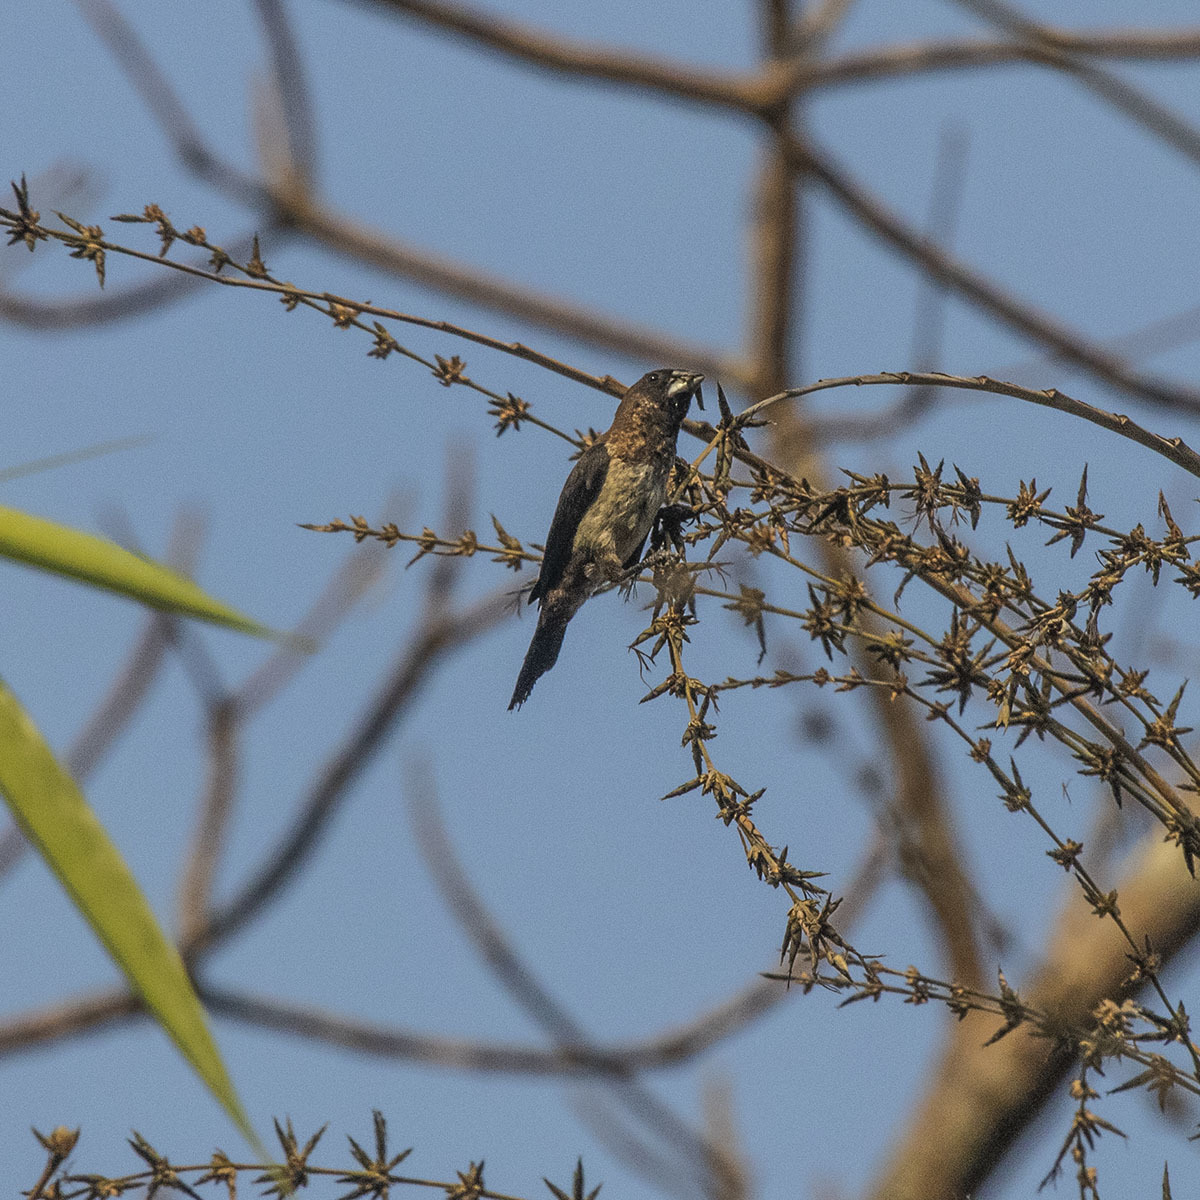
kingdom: Animalia
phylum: Chordata
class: Aves
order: Passeriformes
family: Estrildidae
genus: Lonchura
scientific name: Lonchura striata
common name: White-rumped munia
